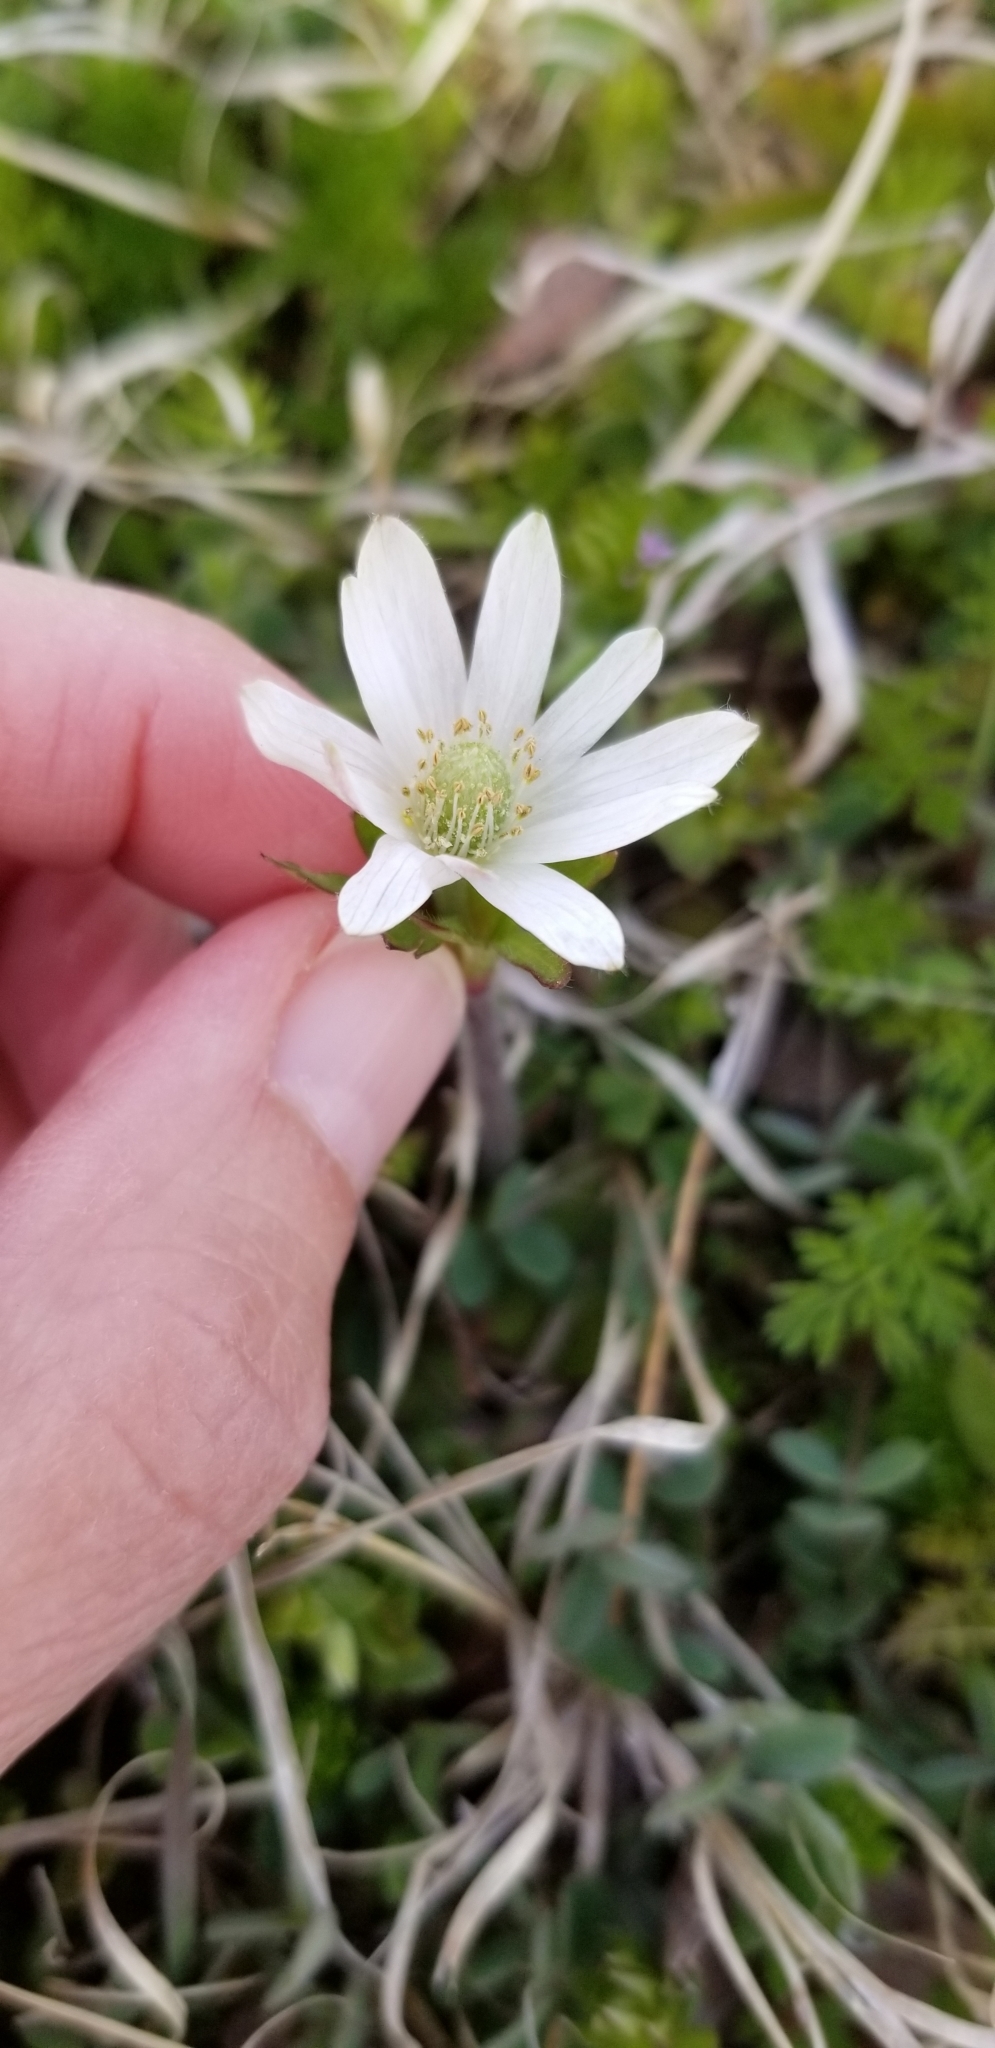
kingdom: Plantae
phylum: Tracheophyta
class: Magnoliopsida
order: Ranunculales
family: Ranunculaceae
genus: Anemone
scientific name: Anemone berlandieri
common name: Ten-petal anemone
